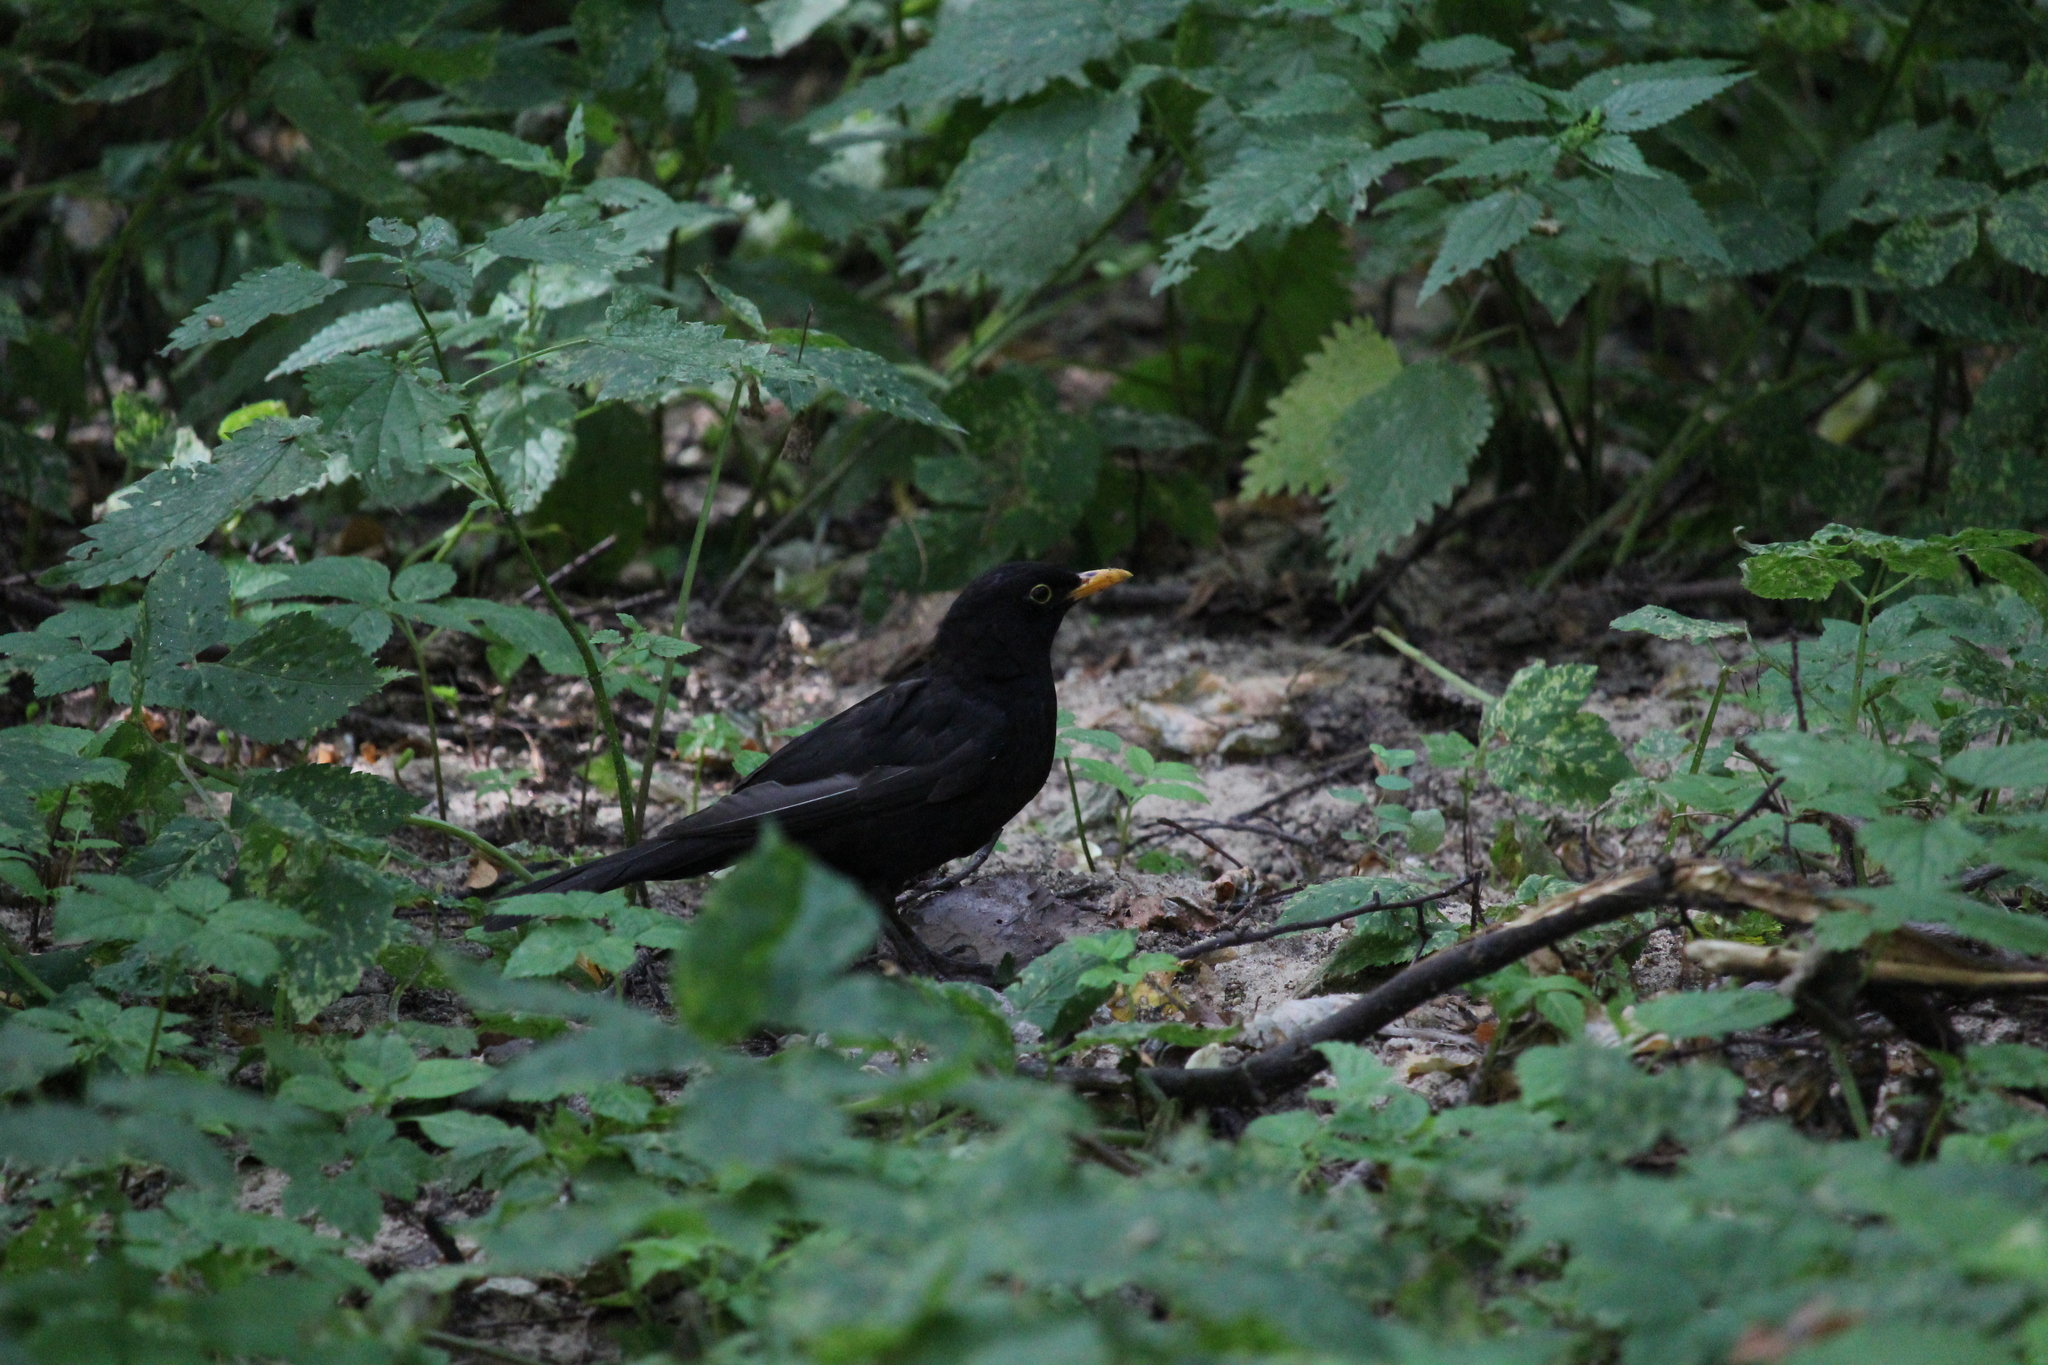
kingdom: Animalia
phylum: Chordata
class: Aves
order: Passeriformes
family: Turdidae
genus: Turdus
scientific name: Turdus merula
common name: Common blackbird
